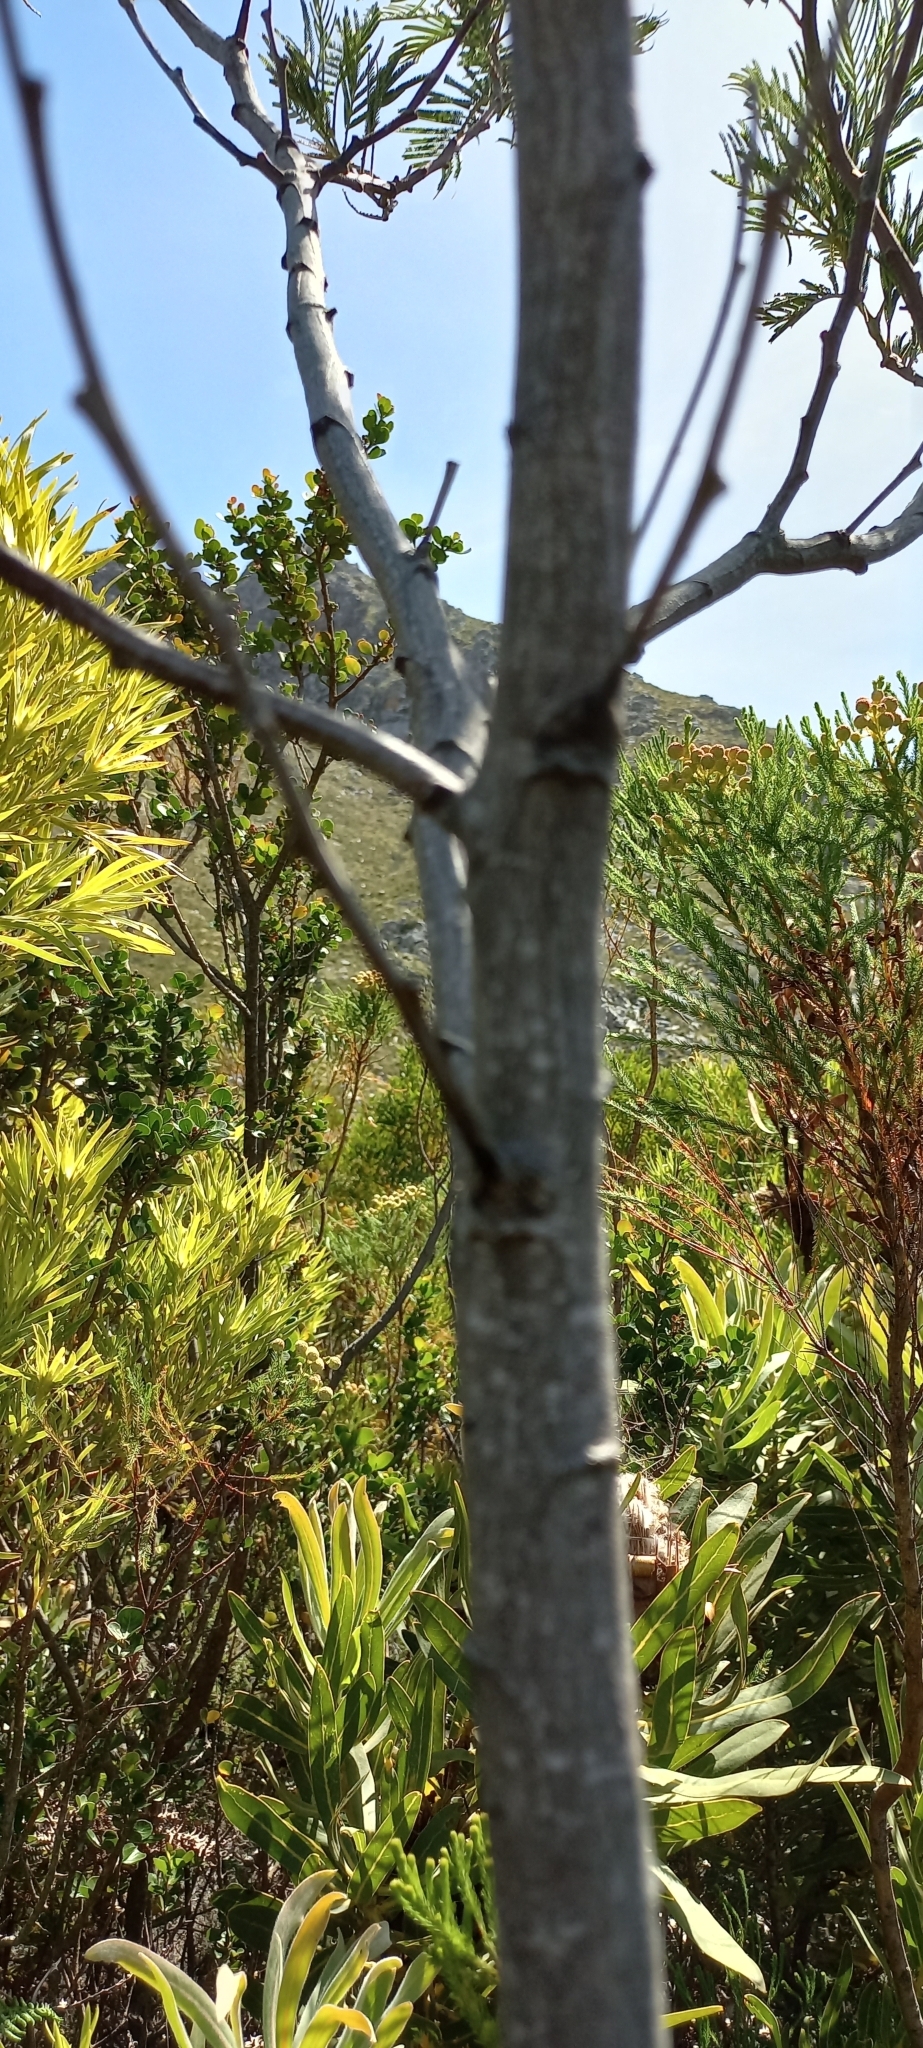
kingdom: Plantae
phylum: Tracheophyta
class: Magnoliopsida
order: Fabales
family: Fabaceae
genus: Acacia
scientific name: Acacia mearnsii
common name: Black wattle
